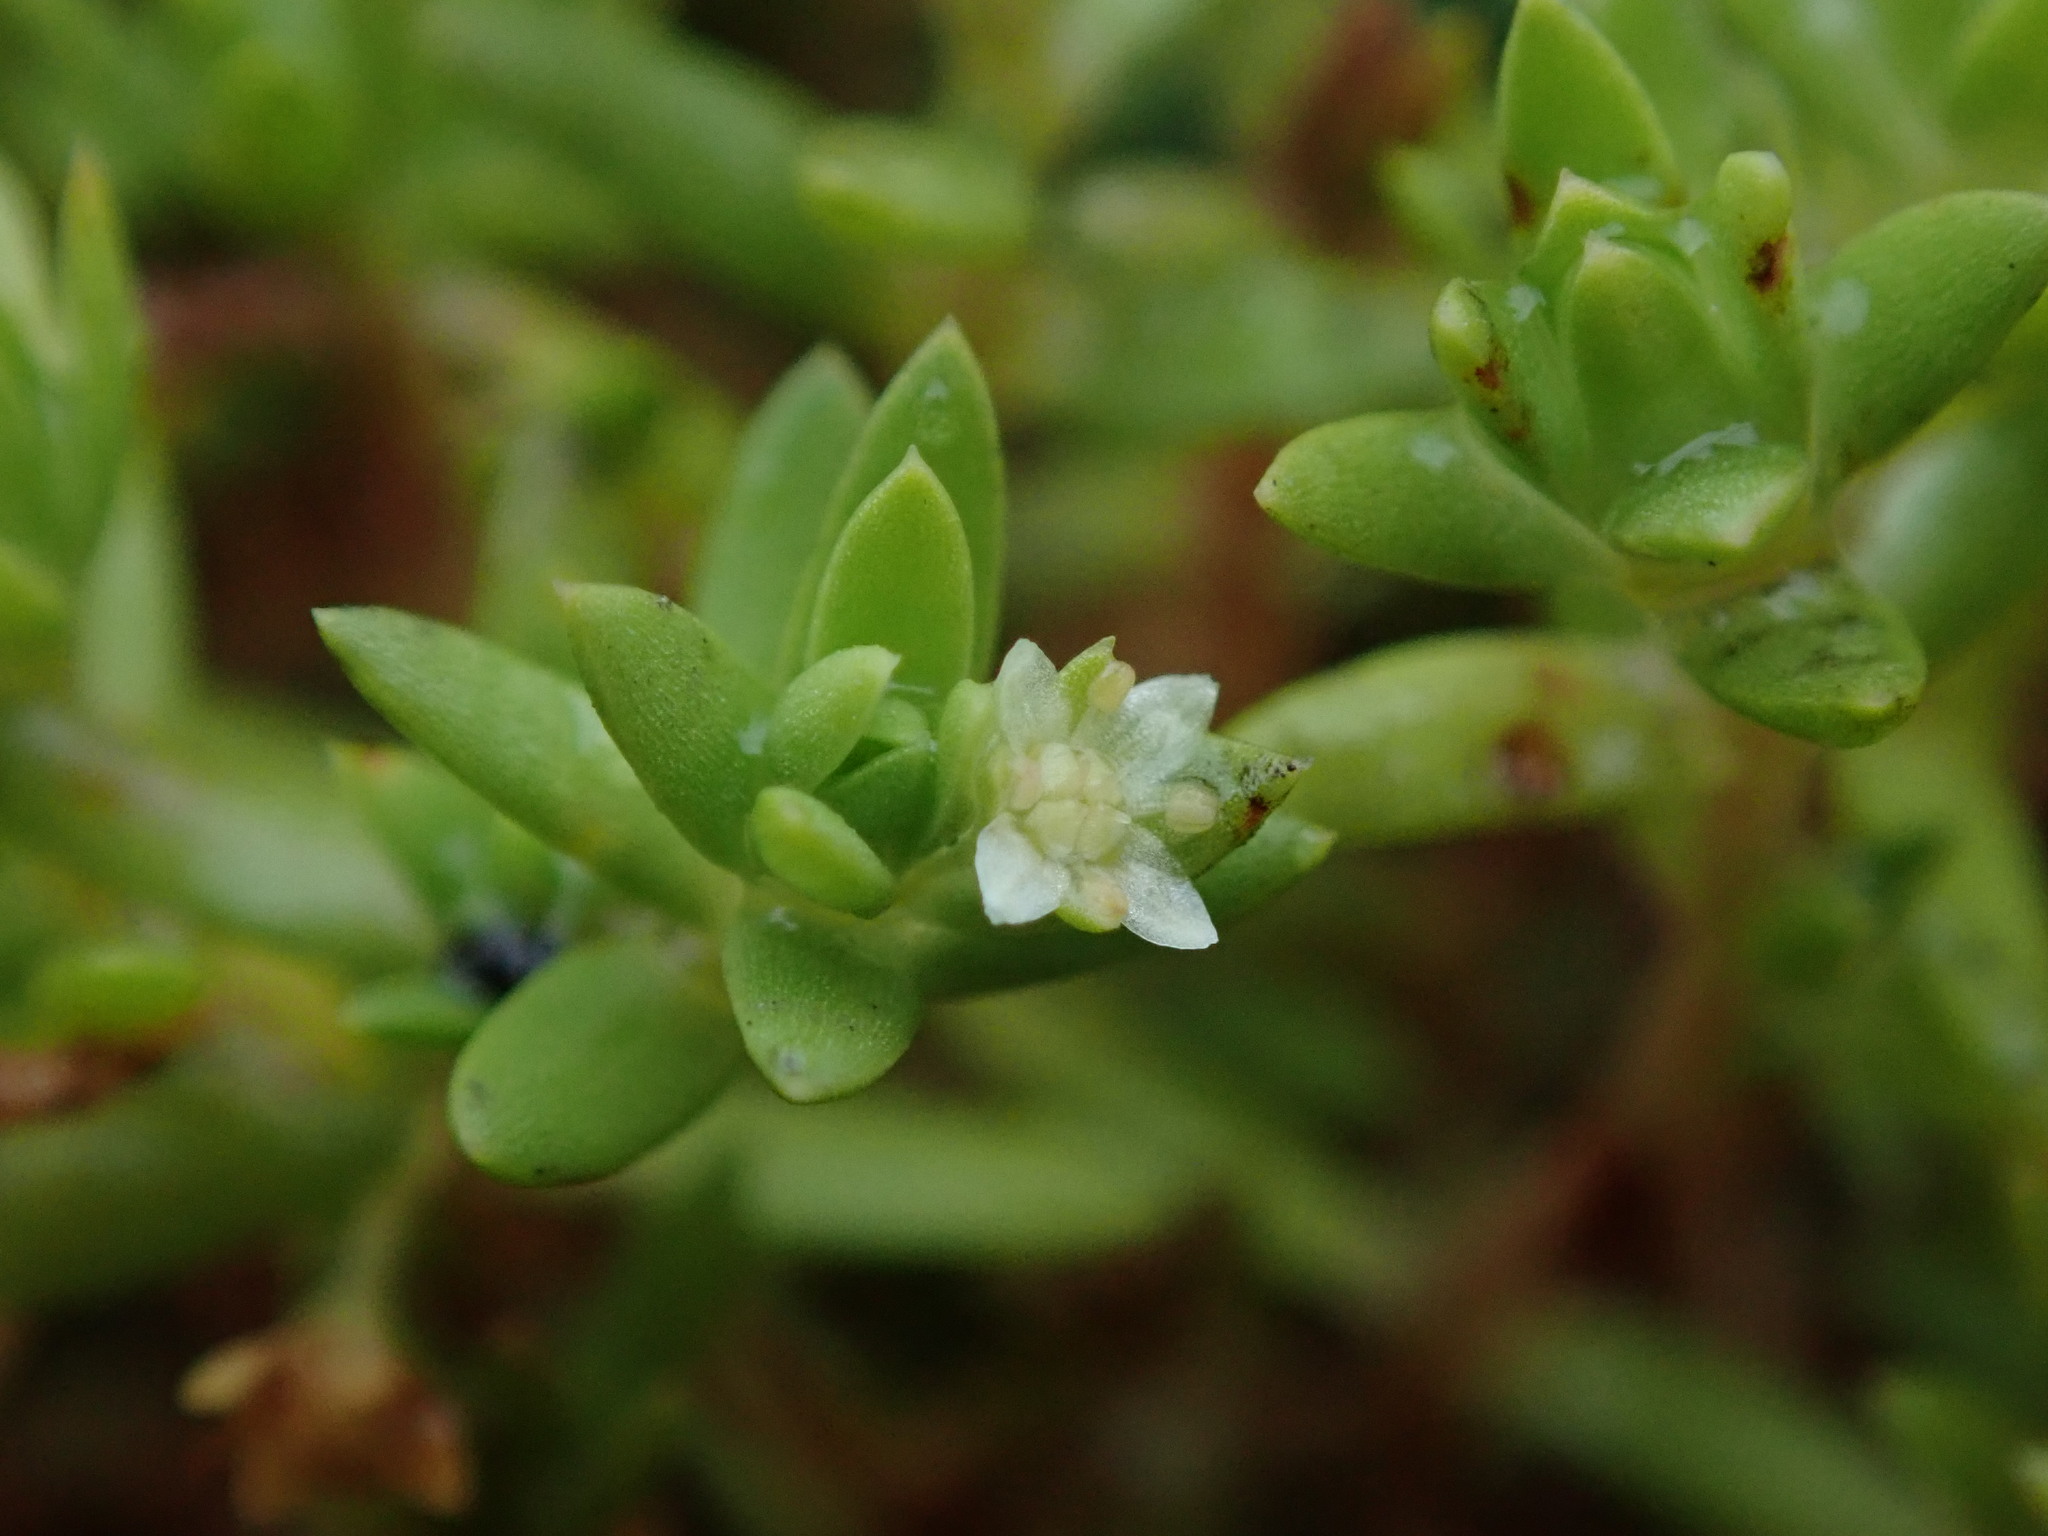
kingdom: Plantae
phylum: Tracheophyta
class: Magnoliopsida
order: Saxifragales
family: Crassulaceae
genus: Crassula
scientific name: Crassula helmsii
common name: New zealand pigmyweed
